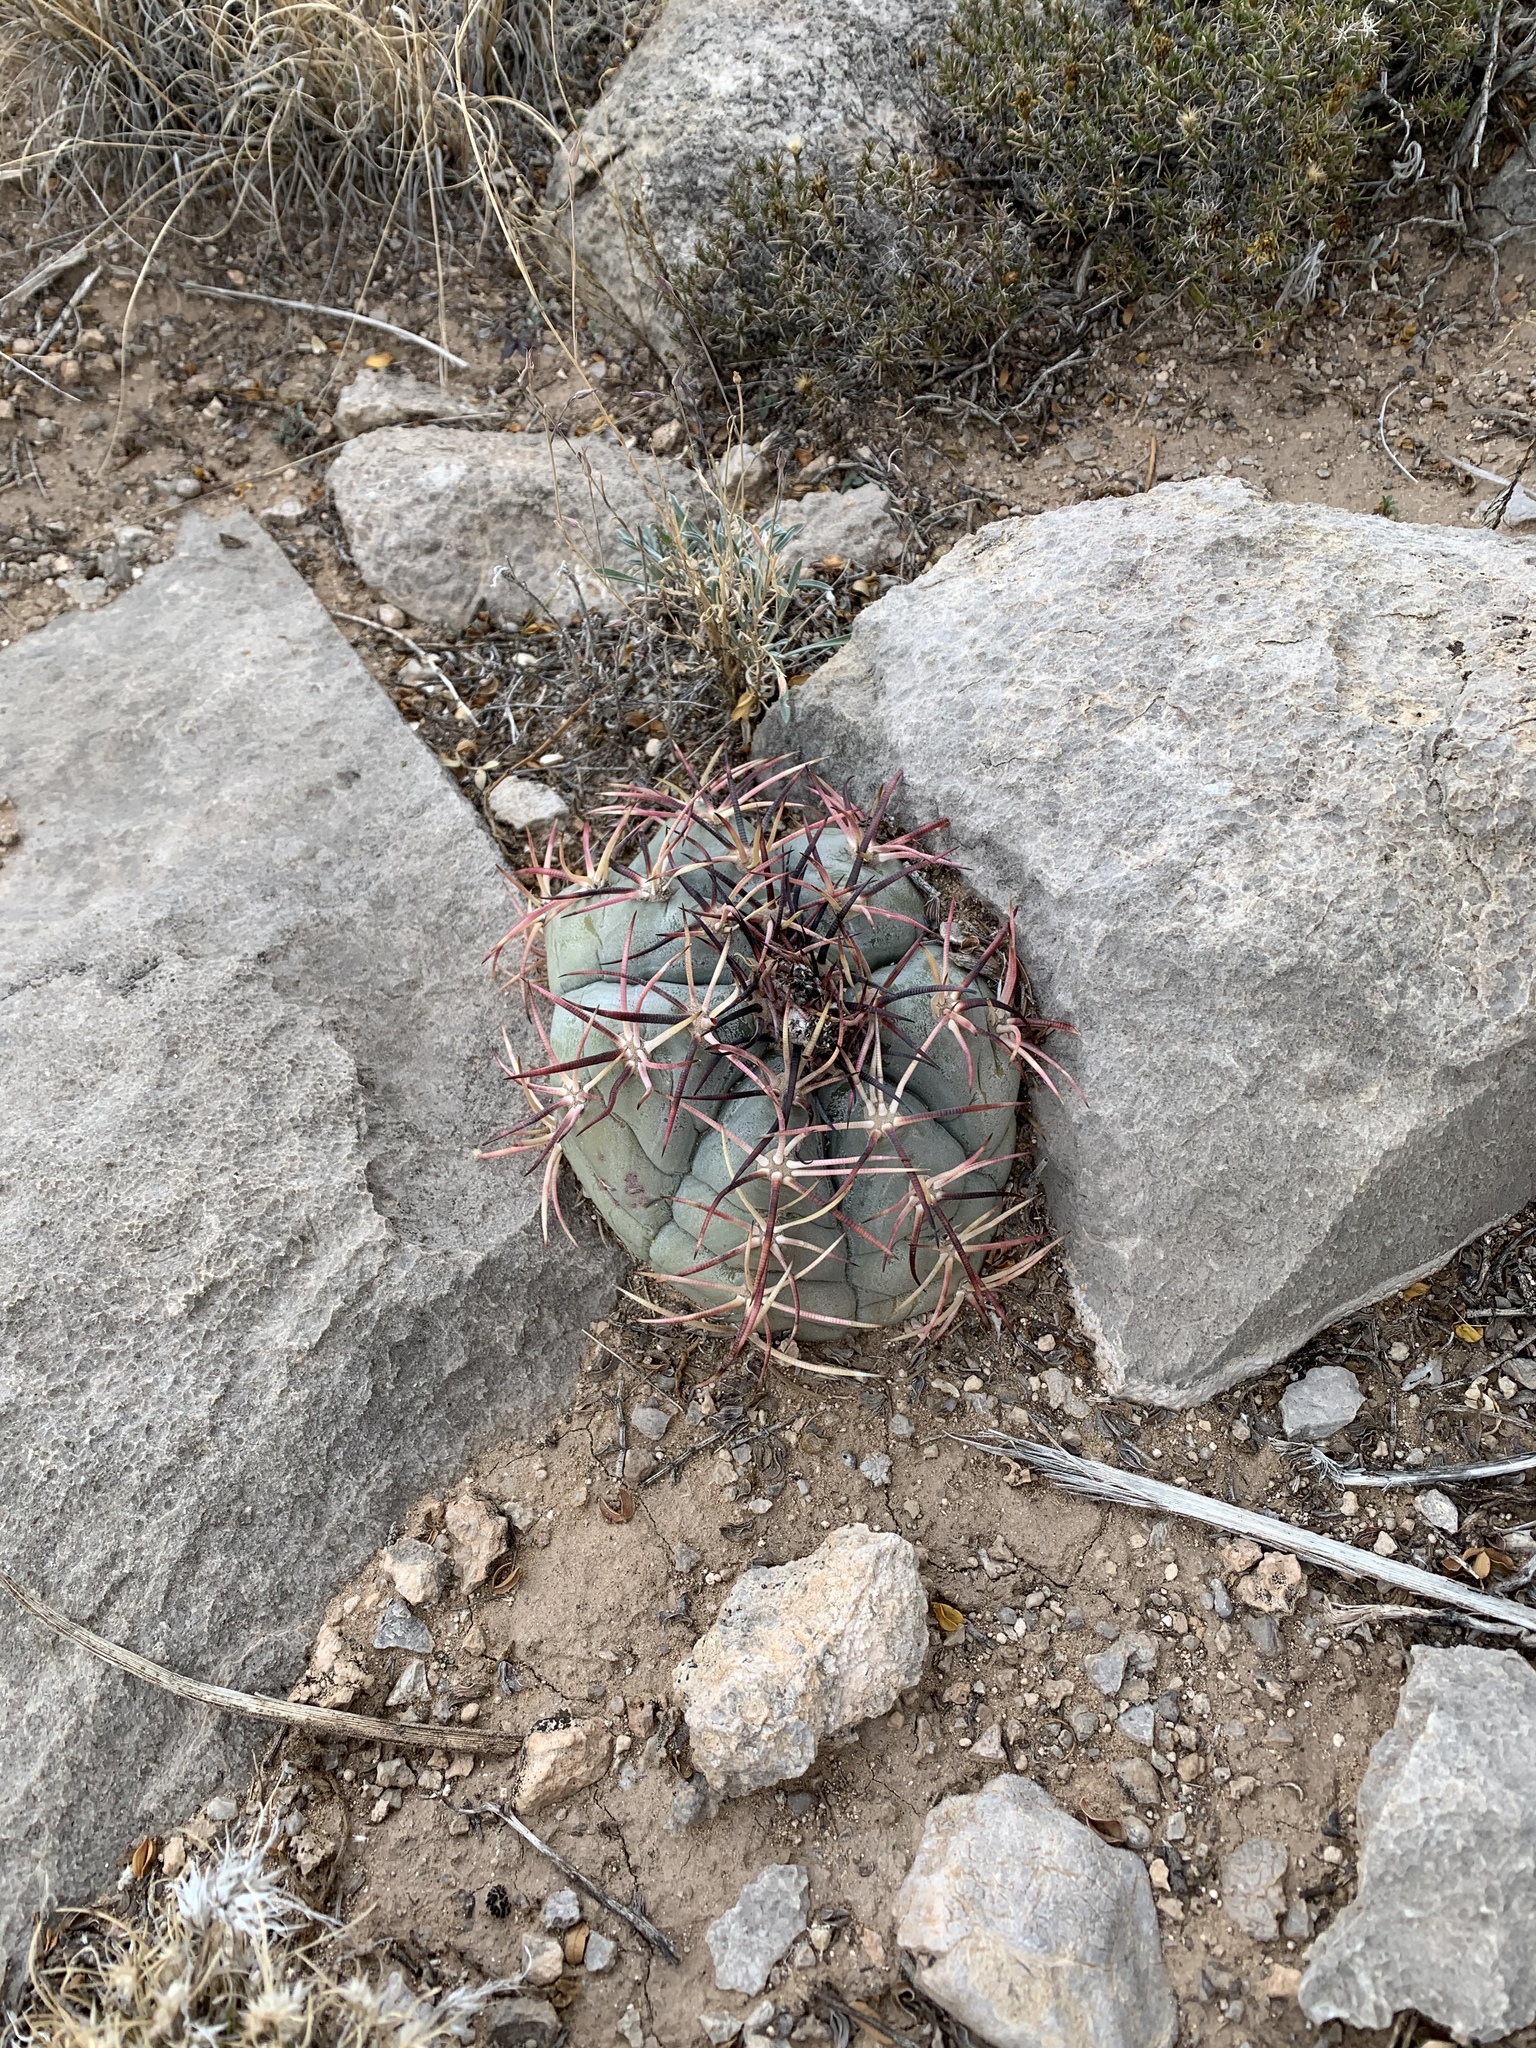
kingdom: Plantae
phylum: Tracheophyta
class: Magnoliopsida
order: Caryophyllales
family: Cactaceae
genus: Echinocactus
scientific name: Echinocactus horizonthalonius
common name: Devilshead
